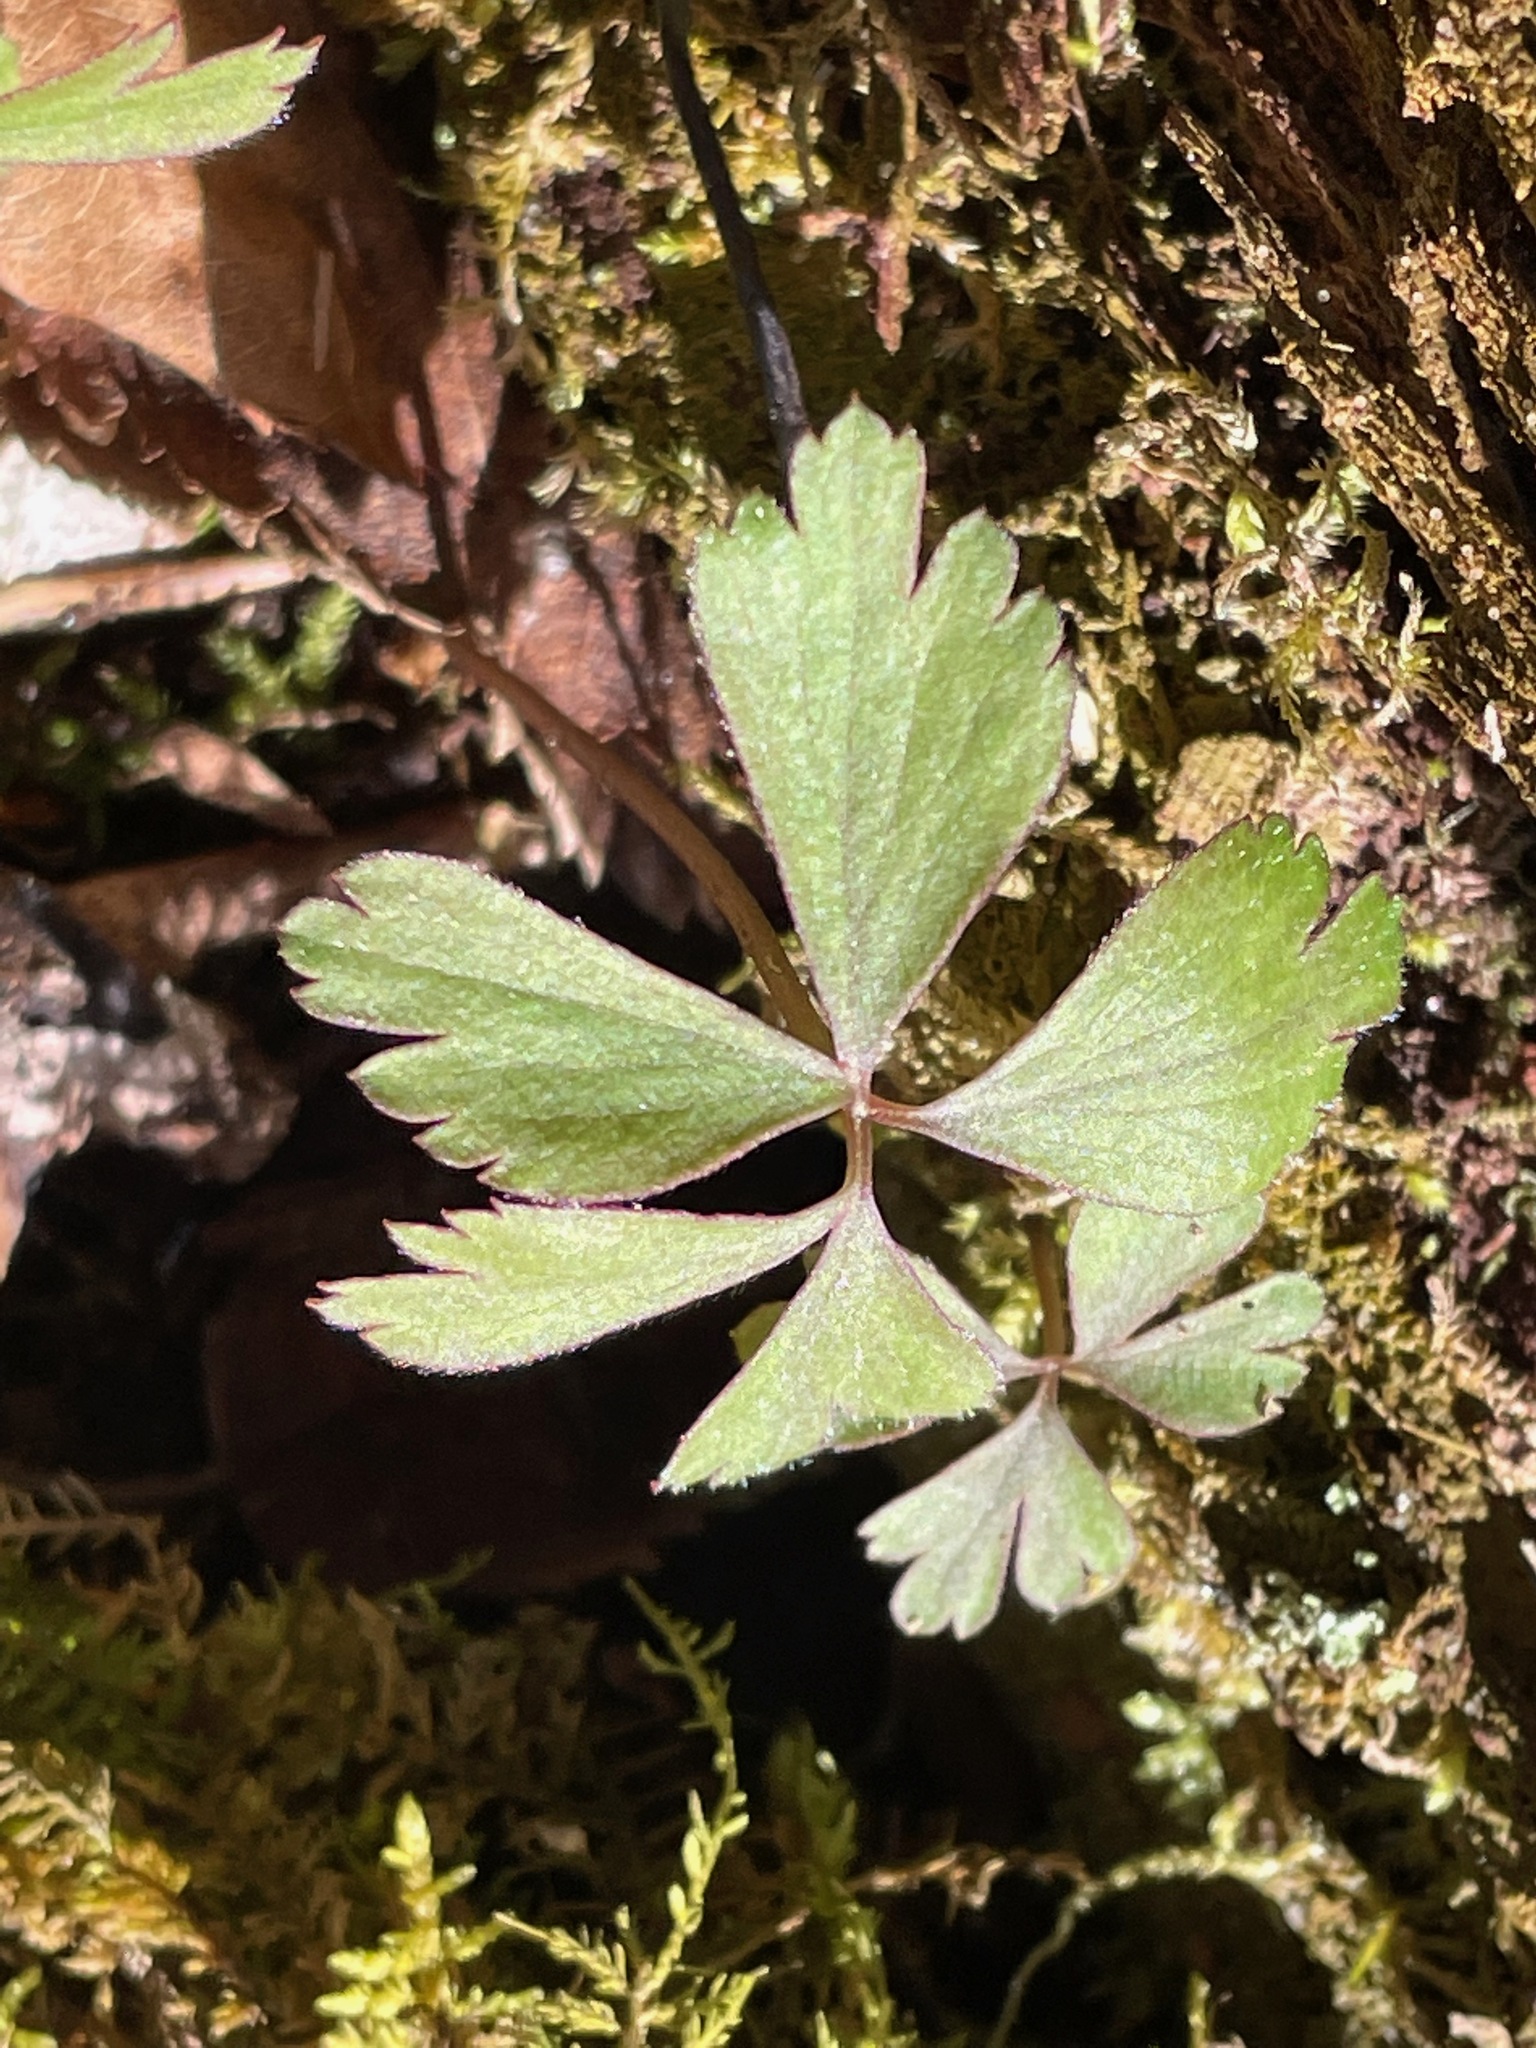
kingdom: Plantae
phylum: Tracheophyta
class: Magnoliopsida
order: Ranunculales
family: Ranunculaceae
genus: Anemone
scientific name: Anemone quinquefolia
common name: Wood anemone
